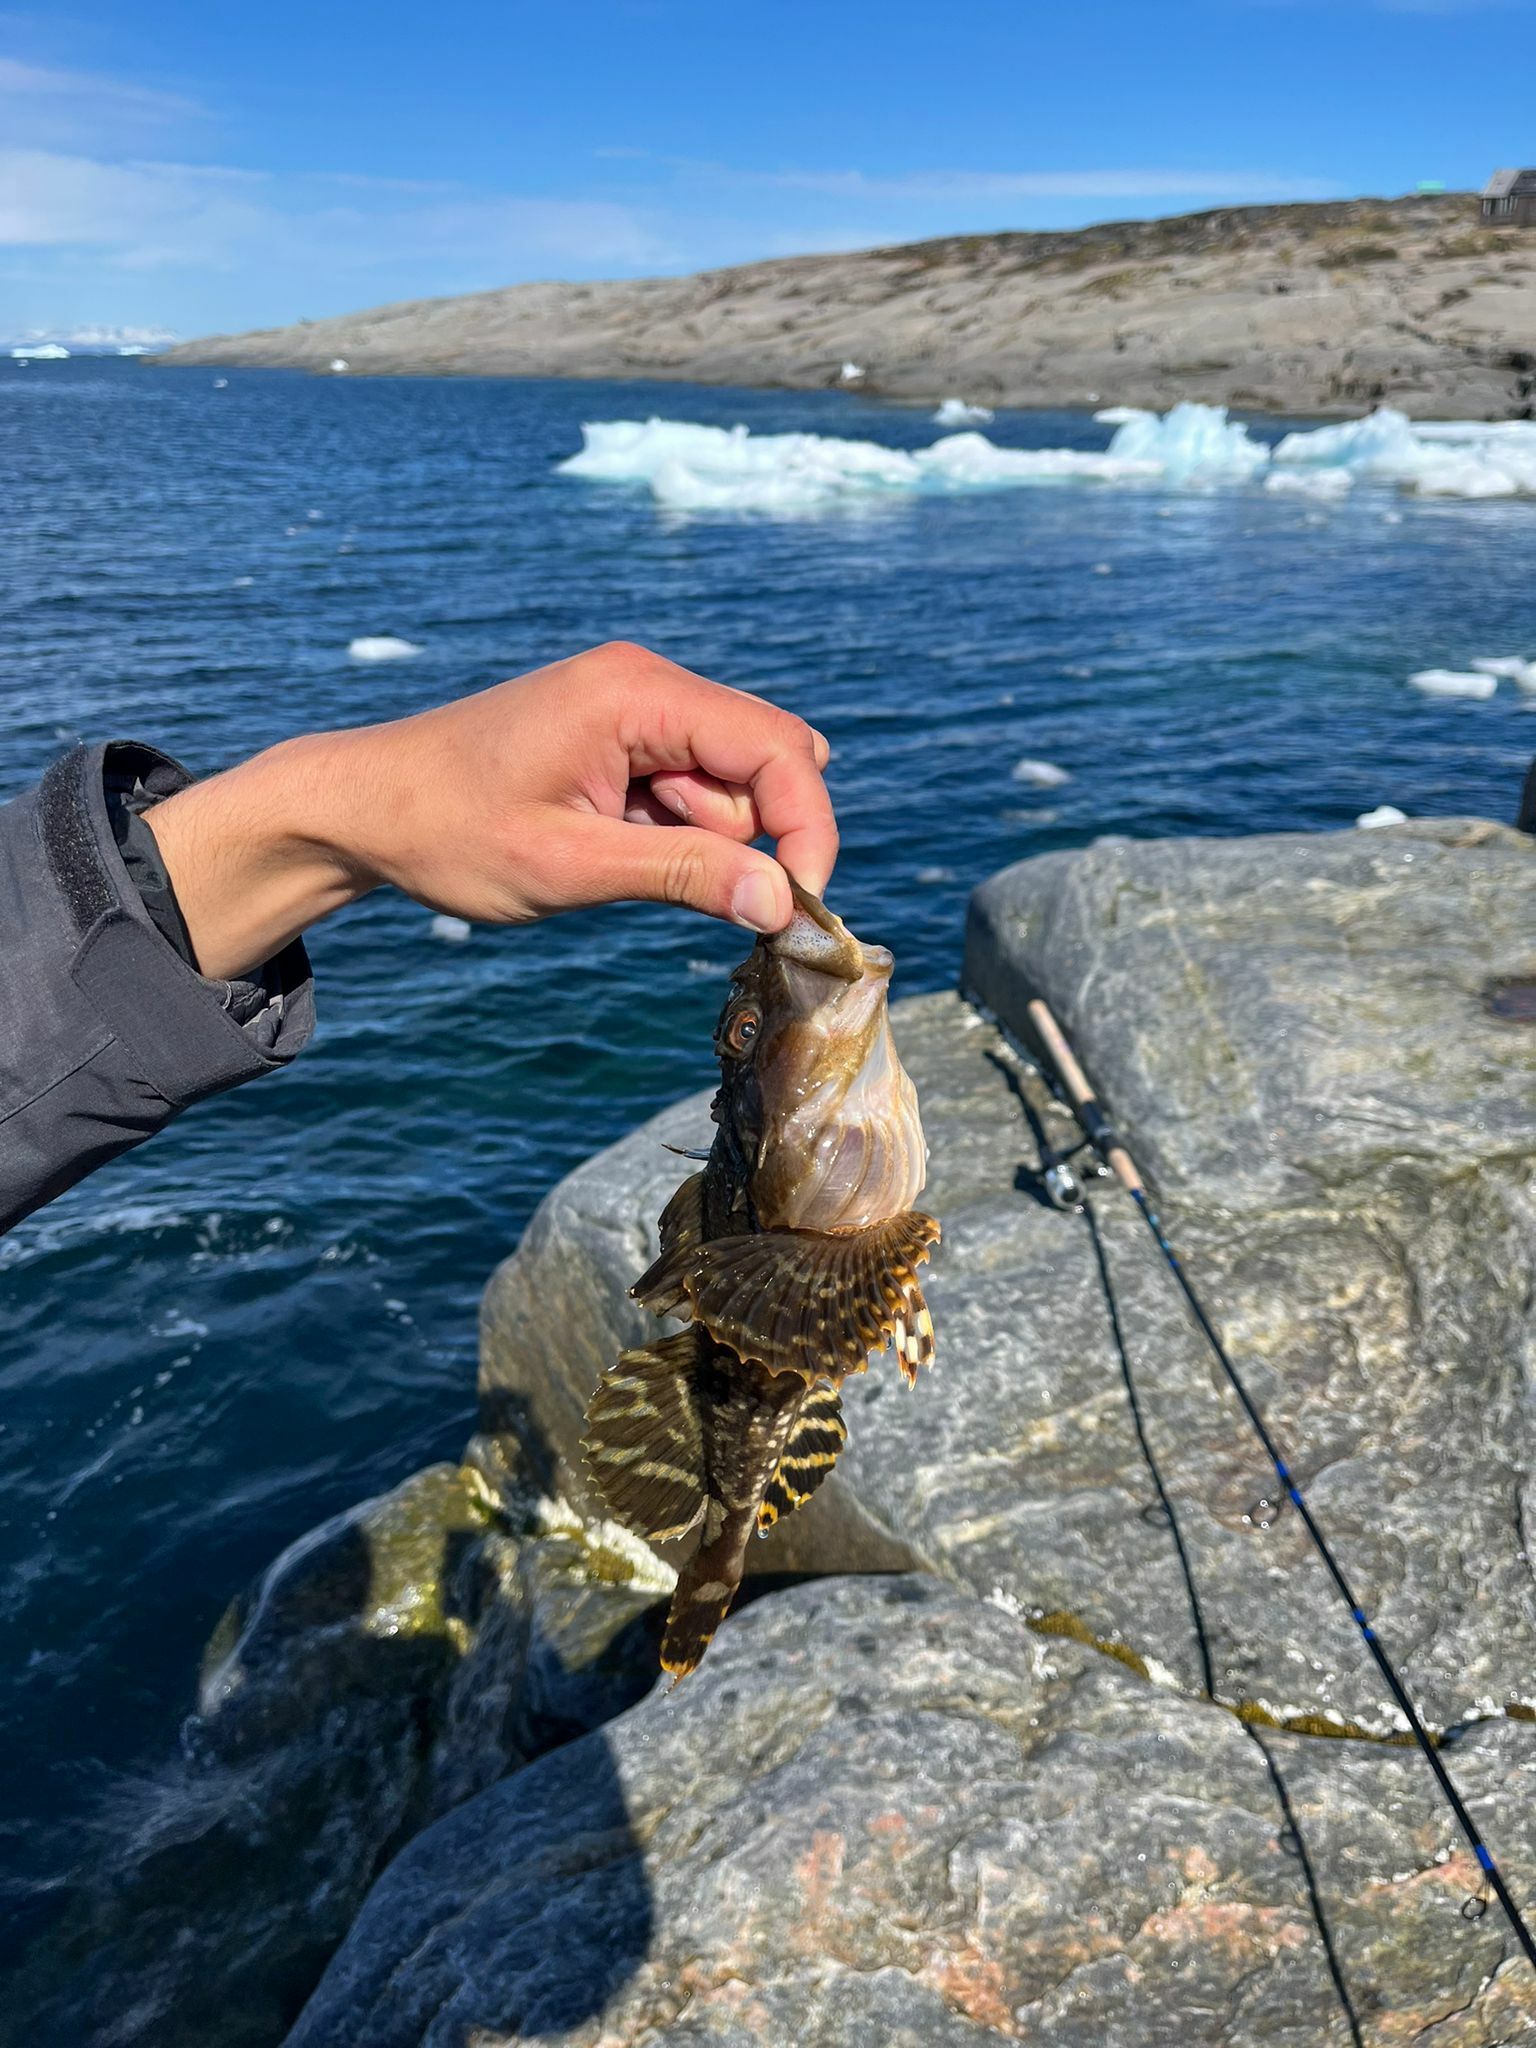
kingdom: Animalia
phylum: Chordata
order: Scorpaeniformes
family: Cottidae
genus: Myoxocephalus
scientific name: Myoxocephalus scorpius
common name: Shorthorn sculpin
